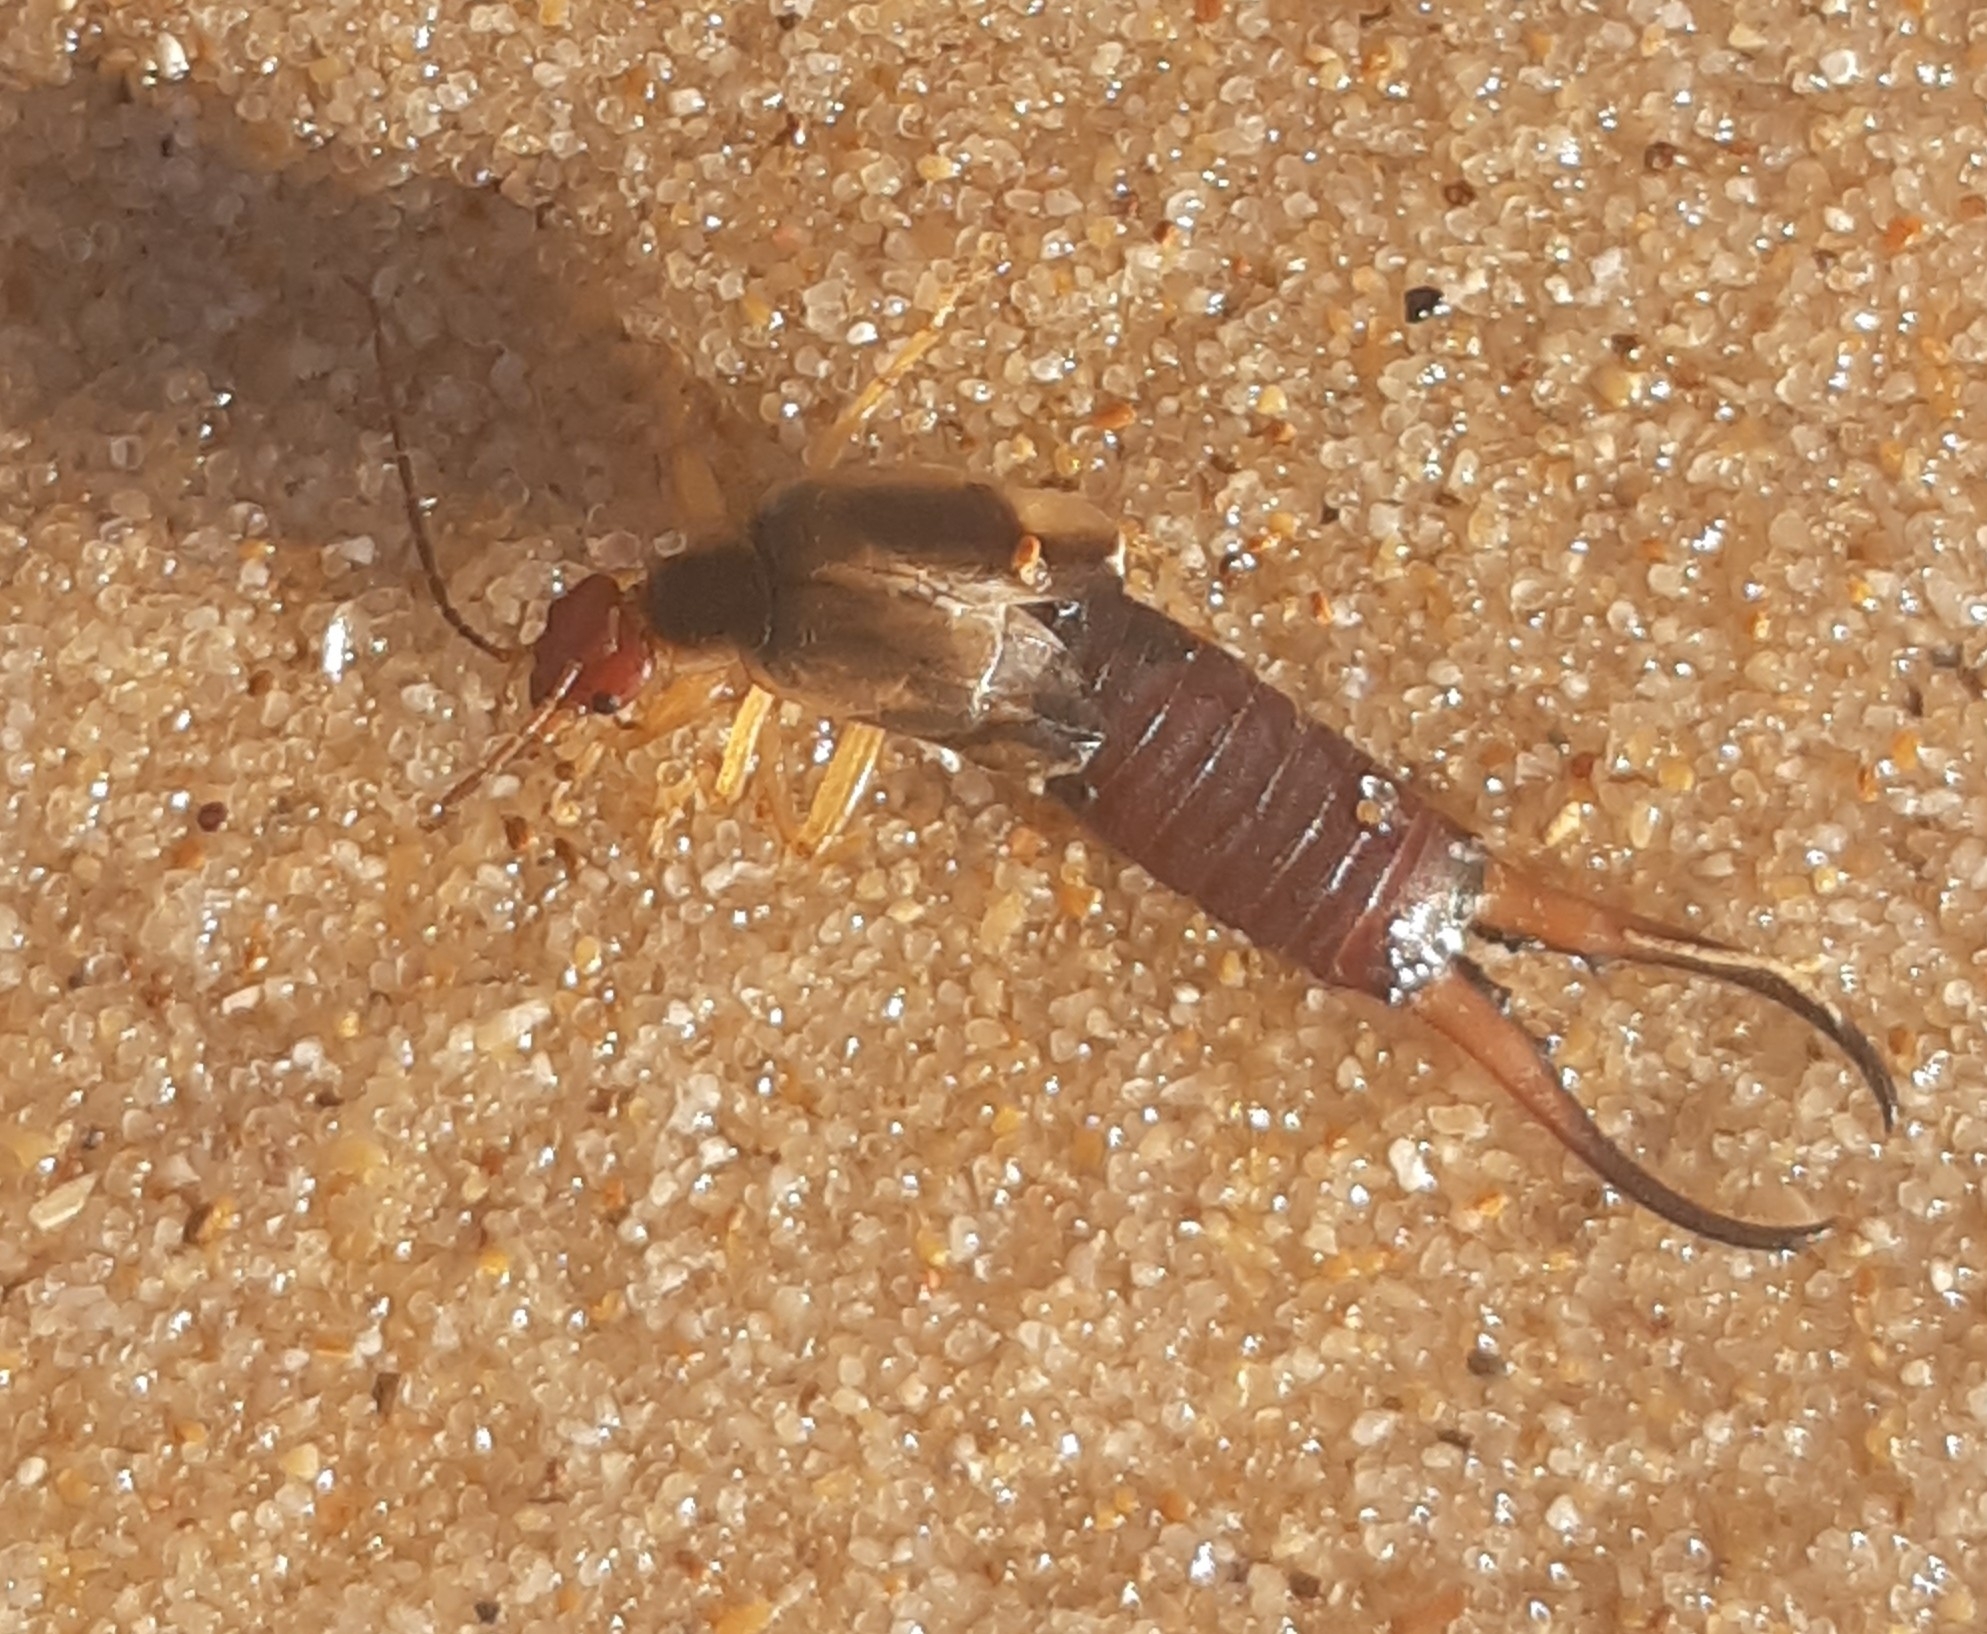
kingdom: Animalia
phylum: Arthropoda
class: Insecta
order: Dermaptera
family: Forficulidae
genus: Forficula
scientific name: Forficula
